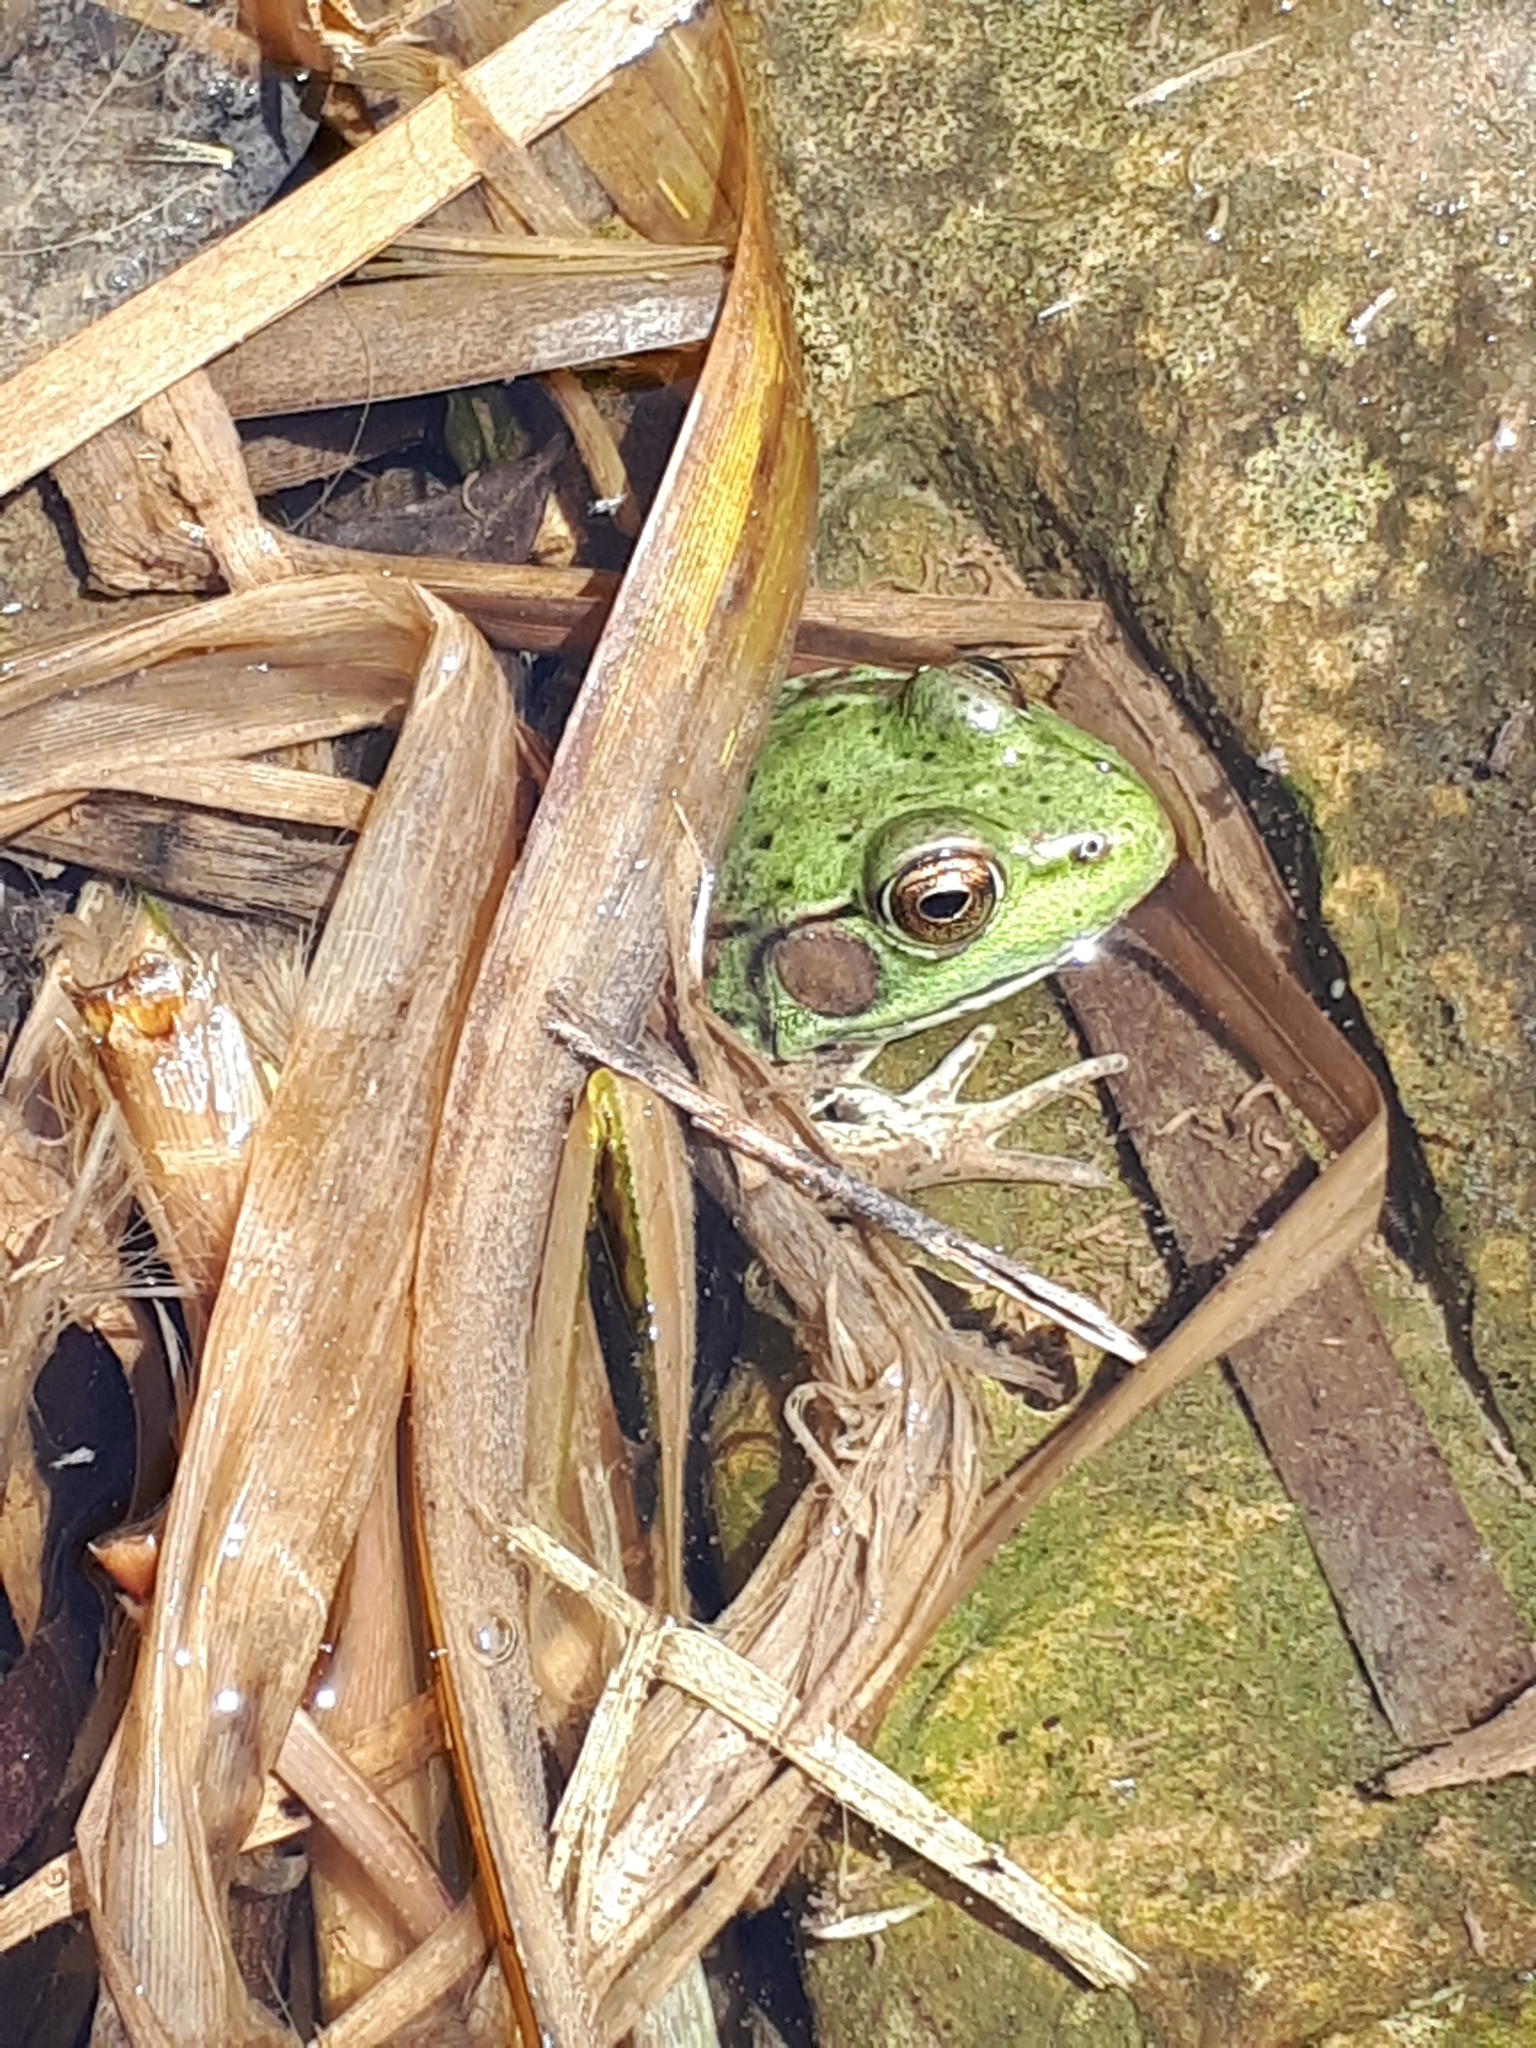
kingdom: Animalia
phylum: Chordata
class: Amphibia
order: Anura
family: Ranidae
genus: Lithobates
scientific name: Lithobates clamitans
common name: Green frog
